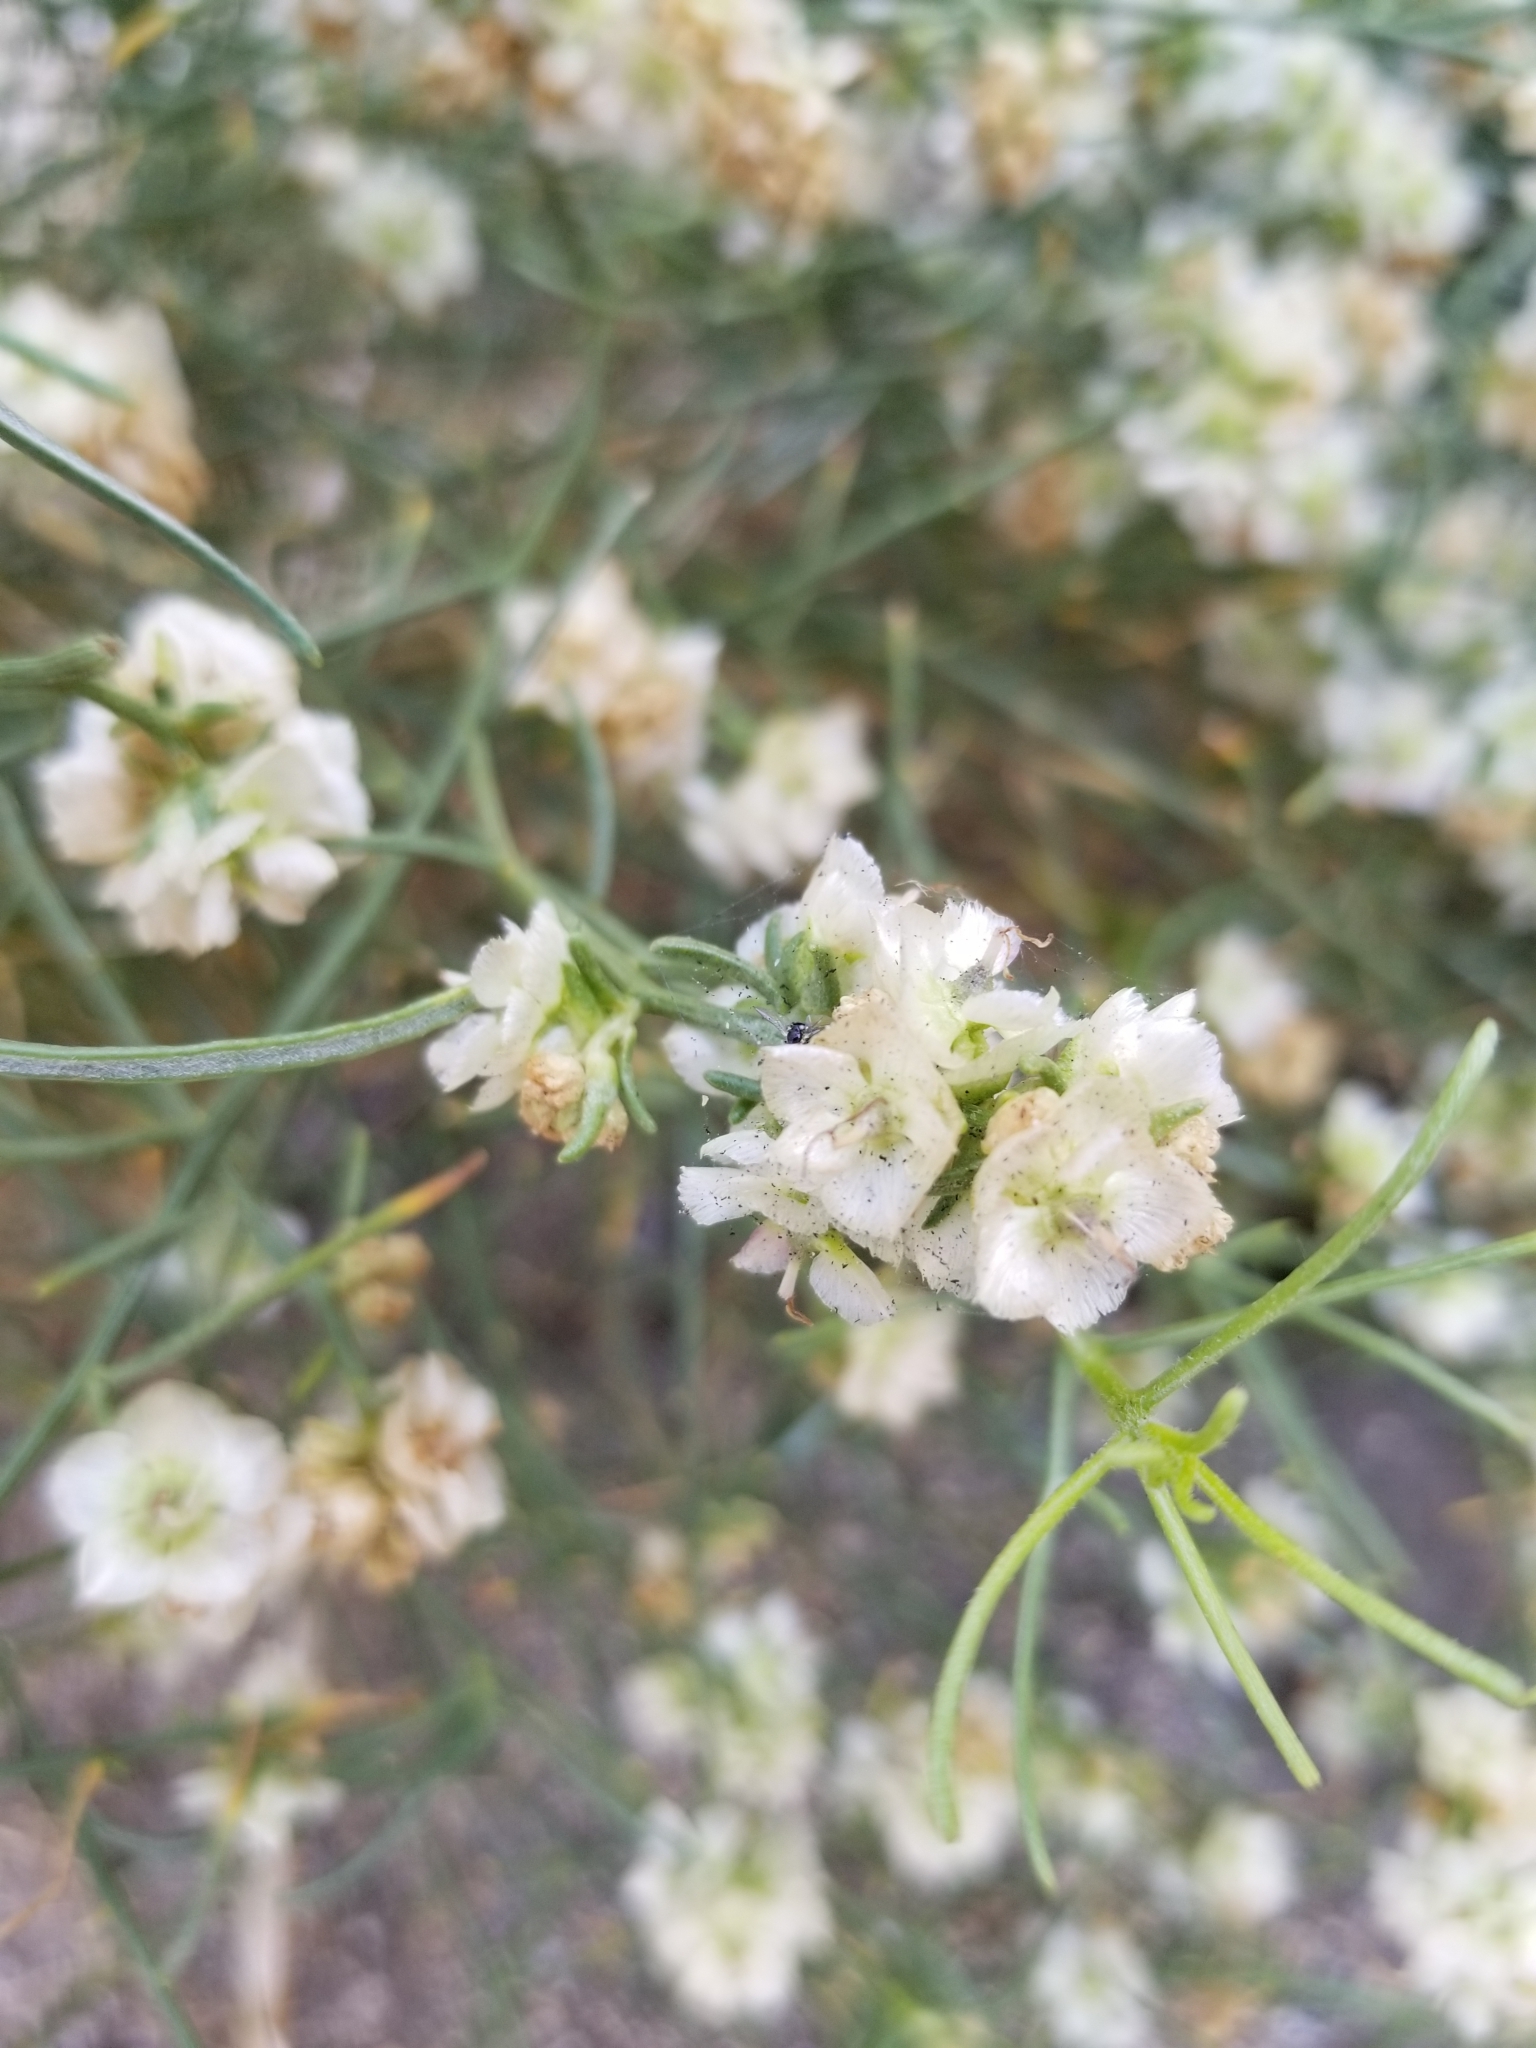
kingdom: Plantae
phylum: Tracheophyta
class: Magnoliopsida
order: Asterales
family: Asteraceae
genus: Ambrosia
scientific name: Ambrosia salsola
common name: Burrobrush
